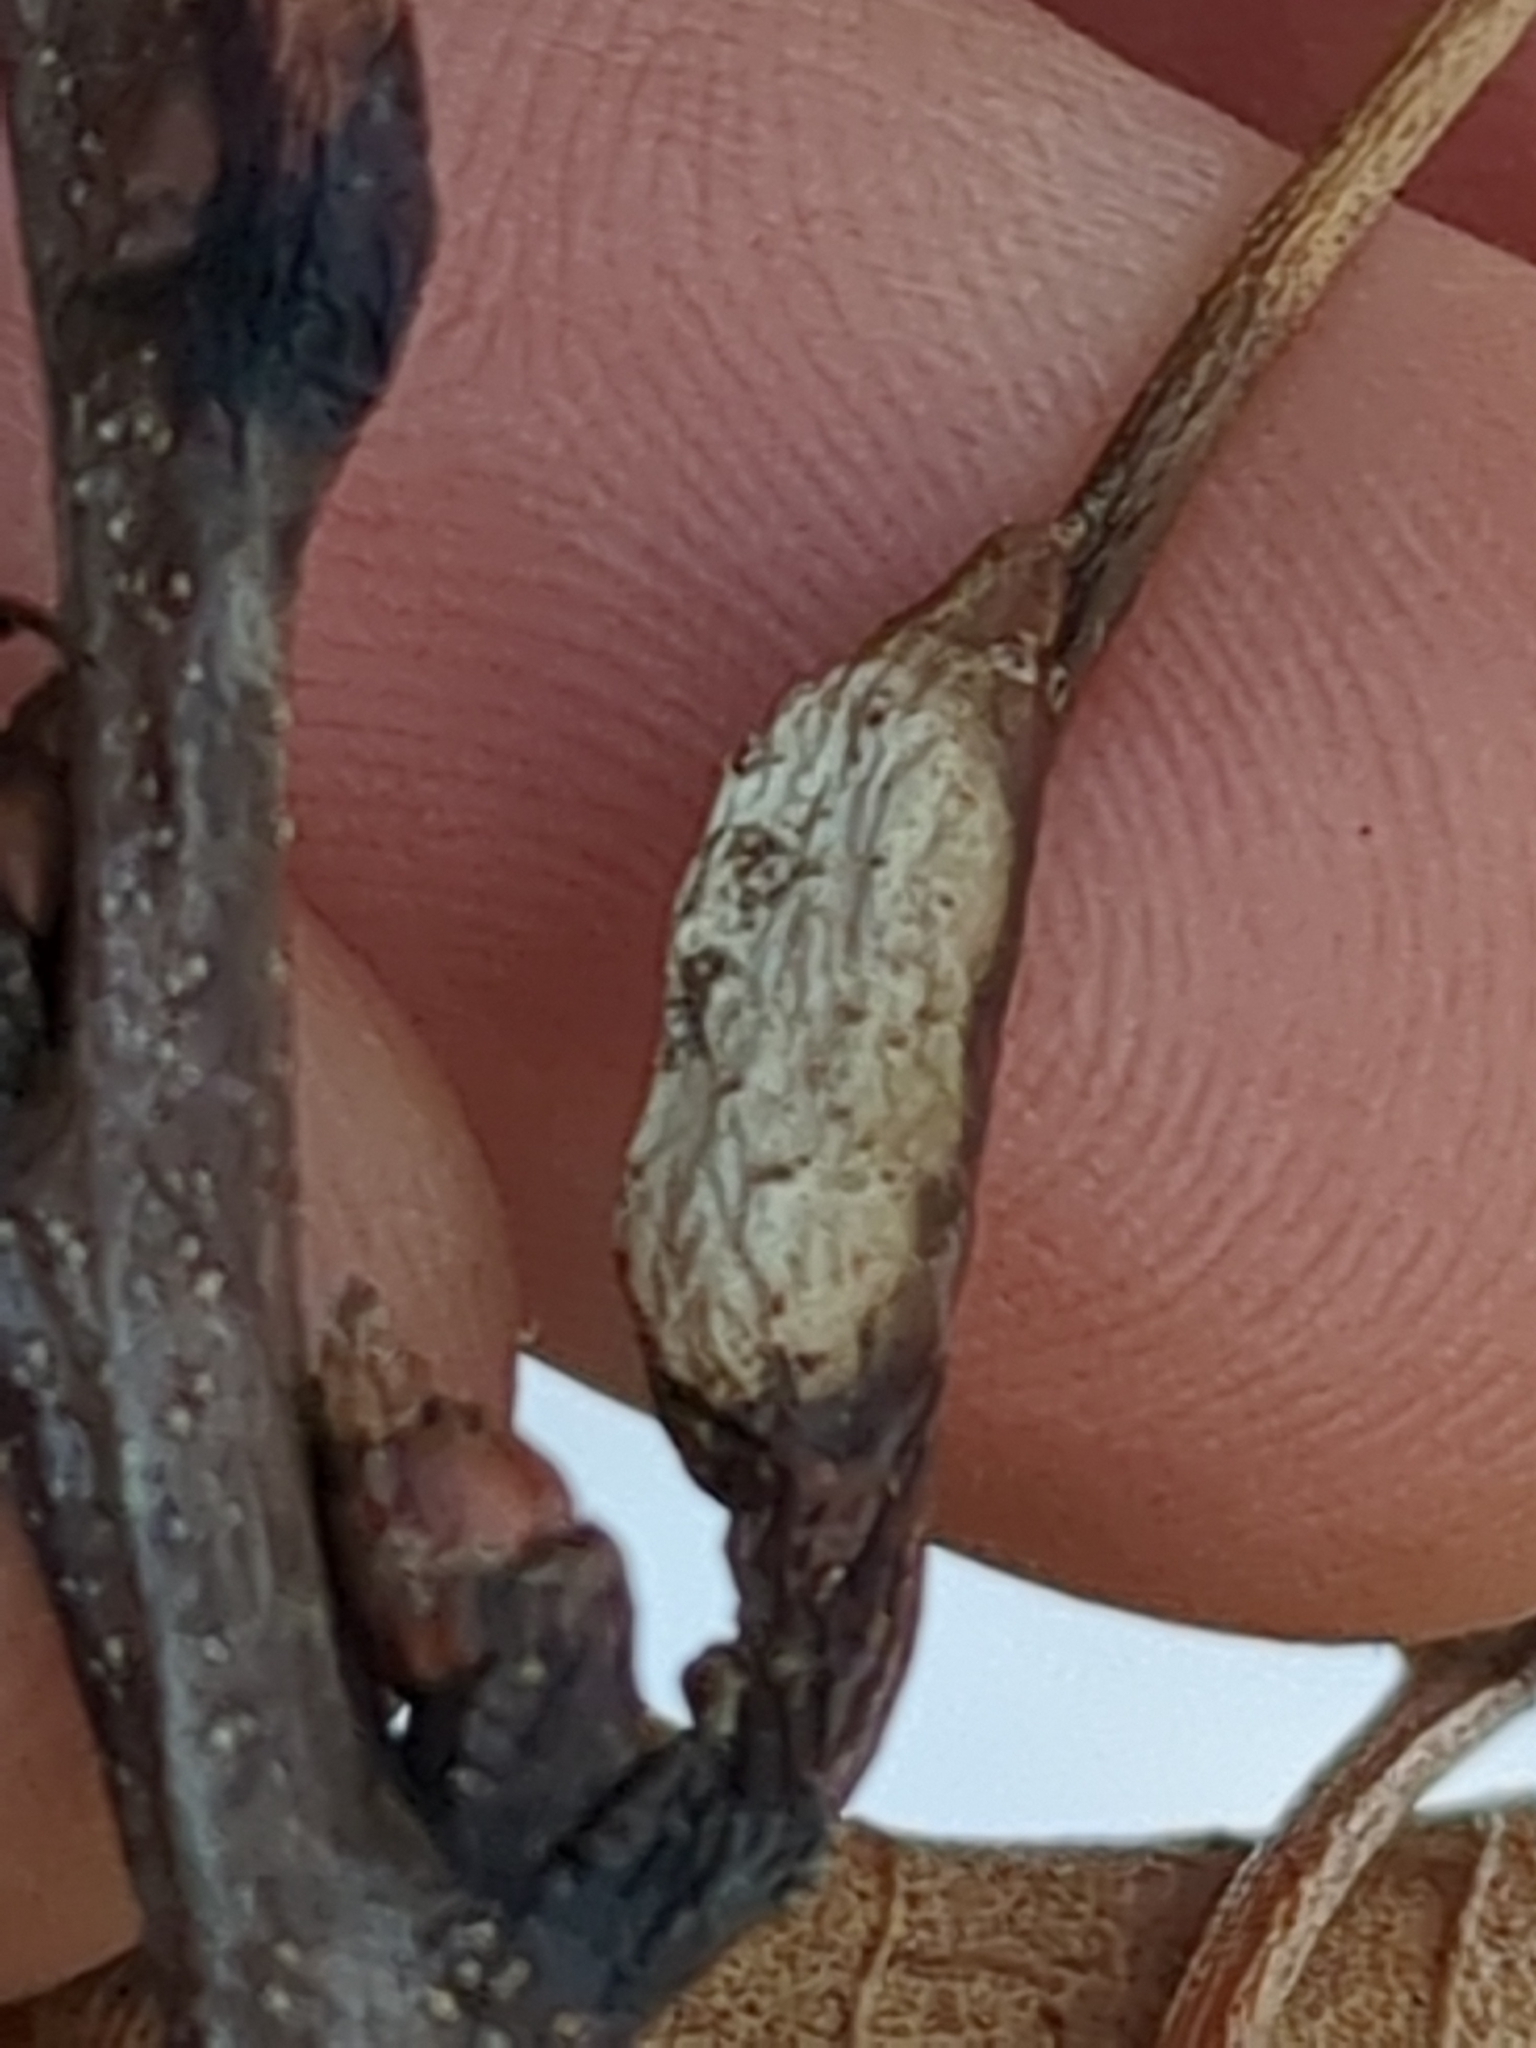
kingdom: Animalia
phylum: Arthropoda
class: Insecta
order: Hymenoptera
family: Cynipidae
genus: Melikaiella
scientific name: Melikaiella tumifica
